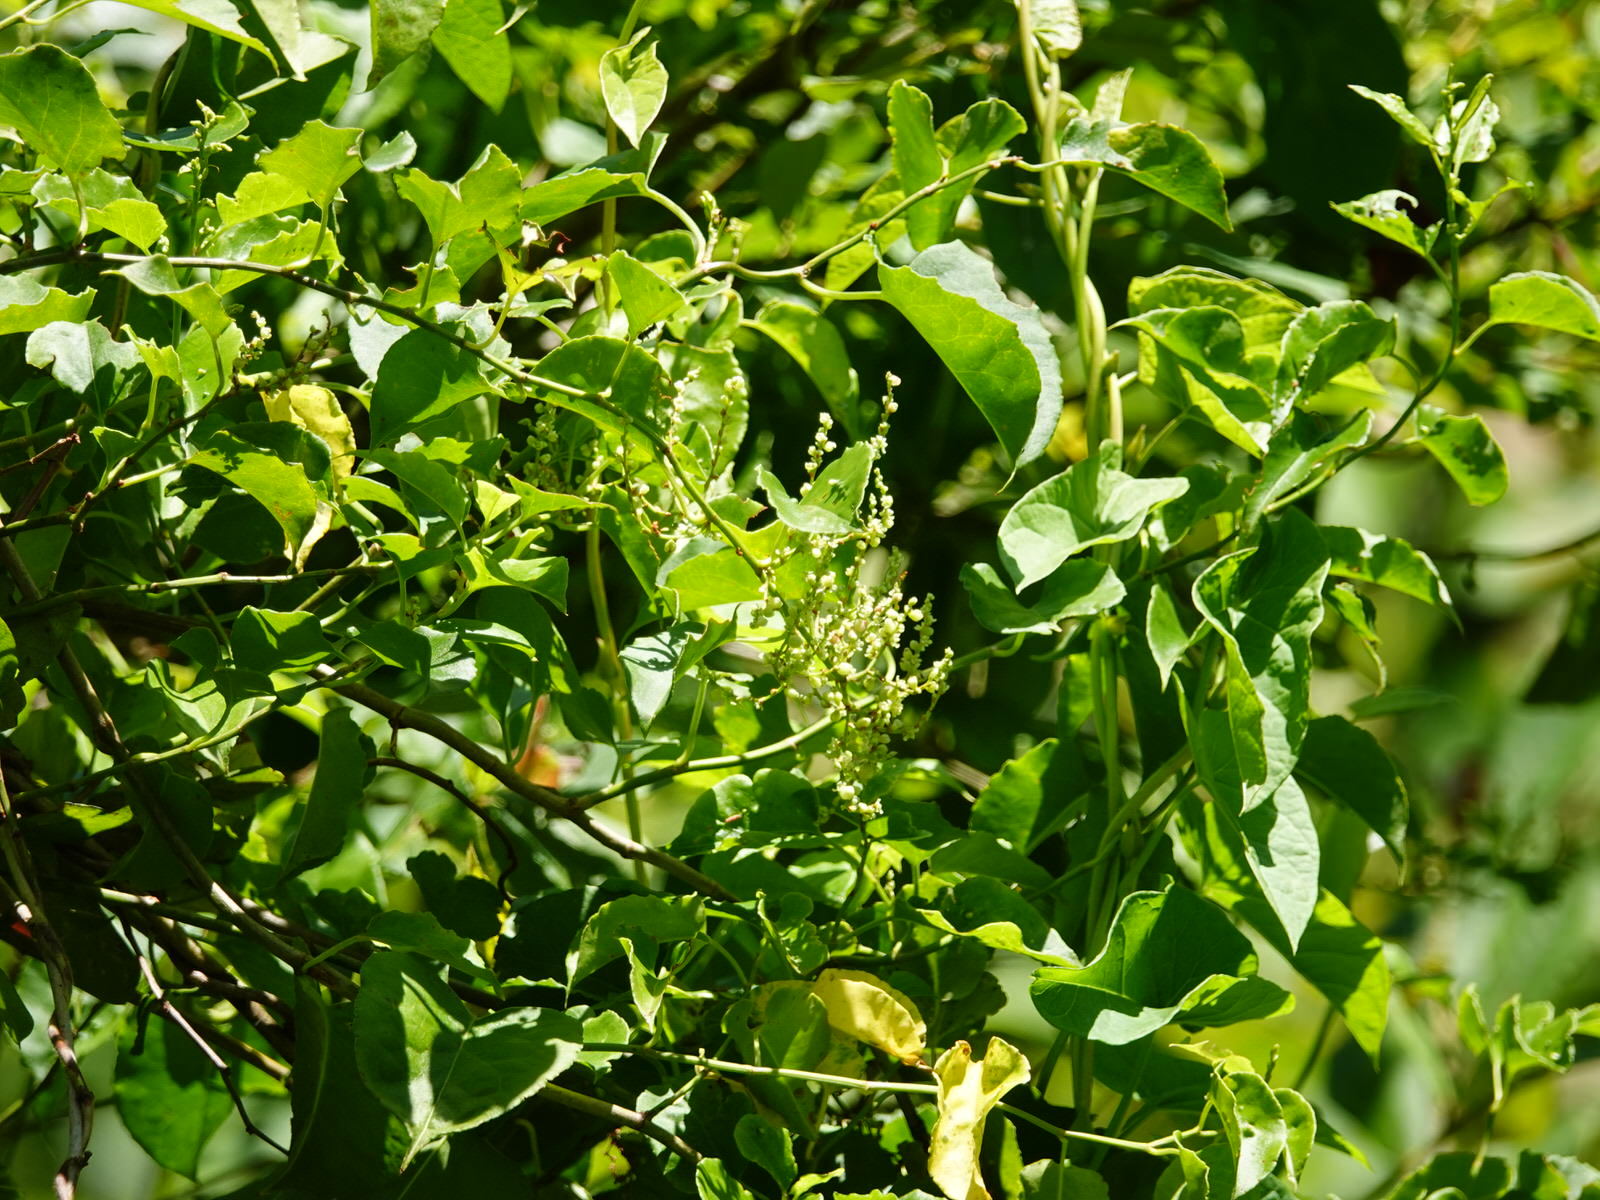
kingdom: Plantae
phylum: Tracheophyta
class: Magnoliopsida
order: Caryophyllales
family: Polygonaceae
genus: Muehlenbeckia
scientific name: Muehlenbeckia australis
